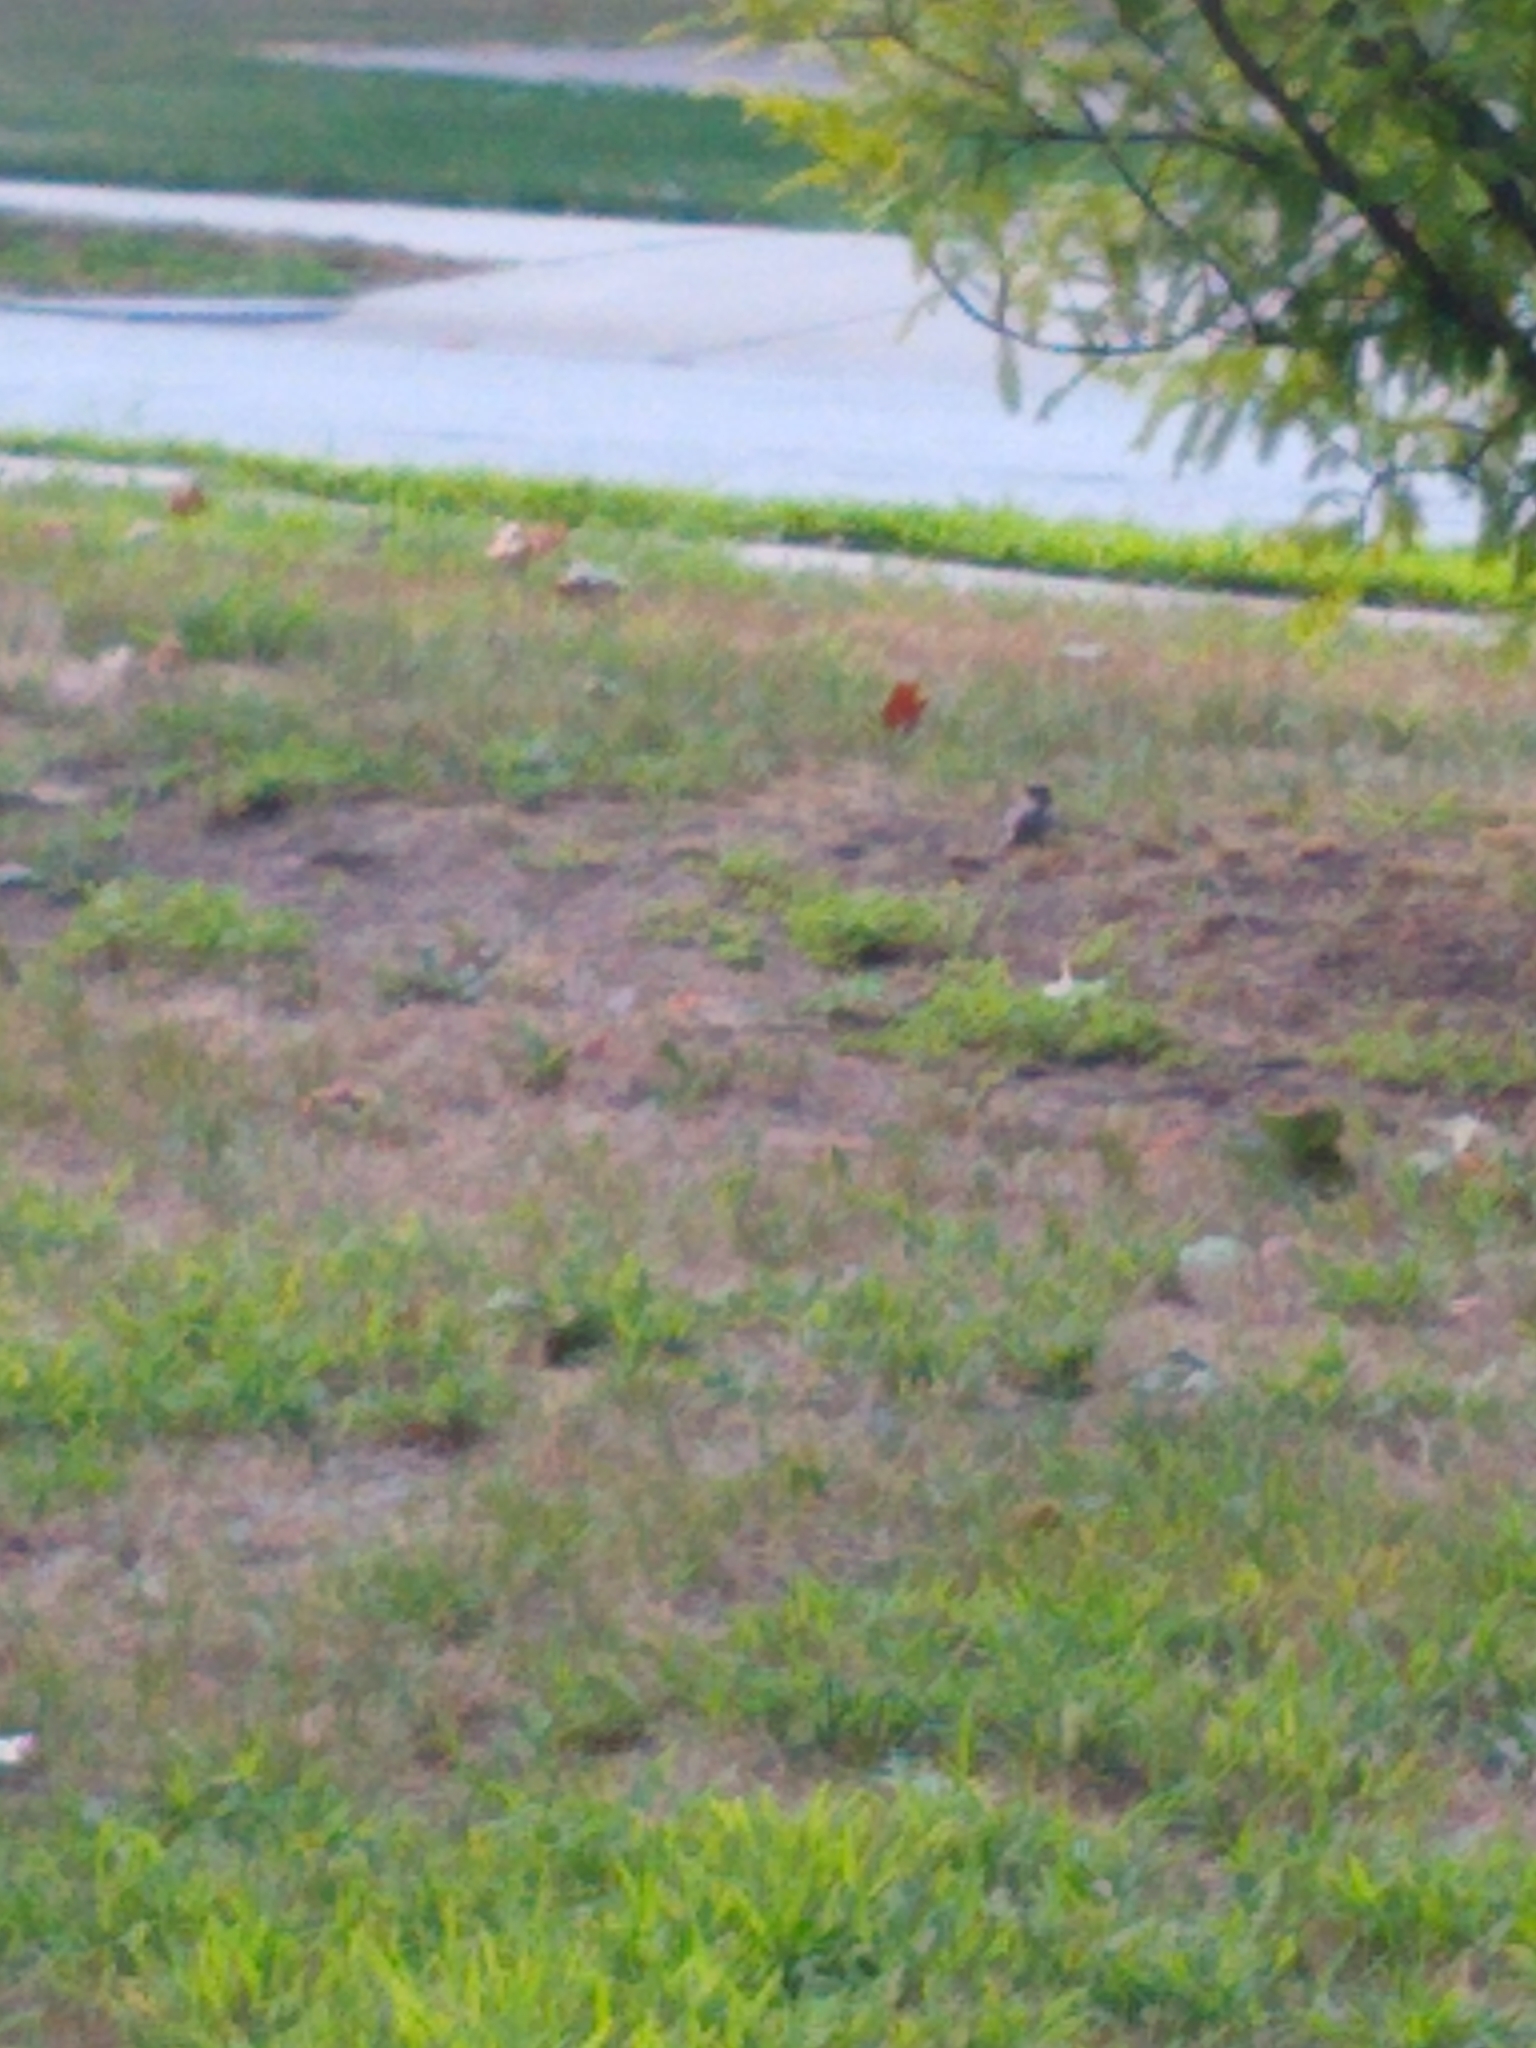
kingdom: Animalia
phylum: Chordata
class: Aves
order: Passeriformes
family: Passeridae
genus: Passer
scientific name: Passer domesticus
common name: House sparrow
